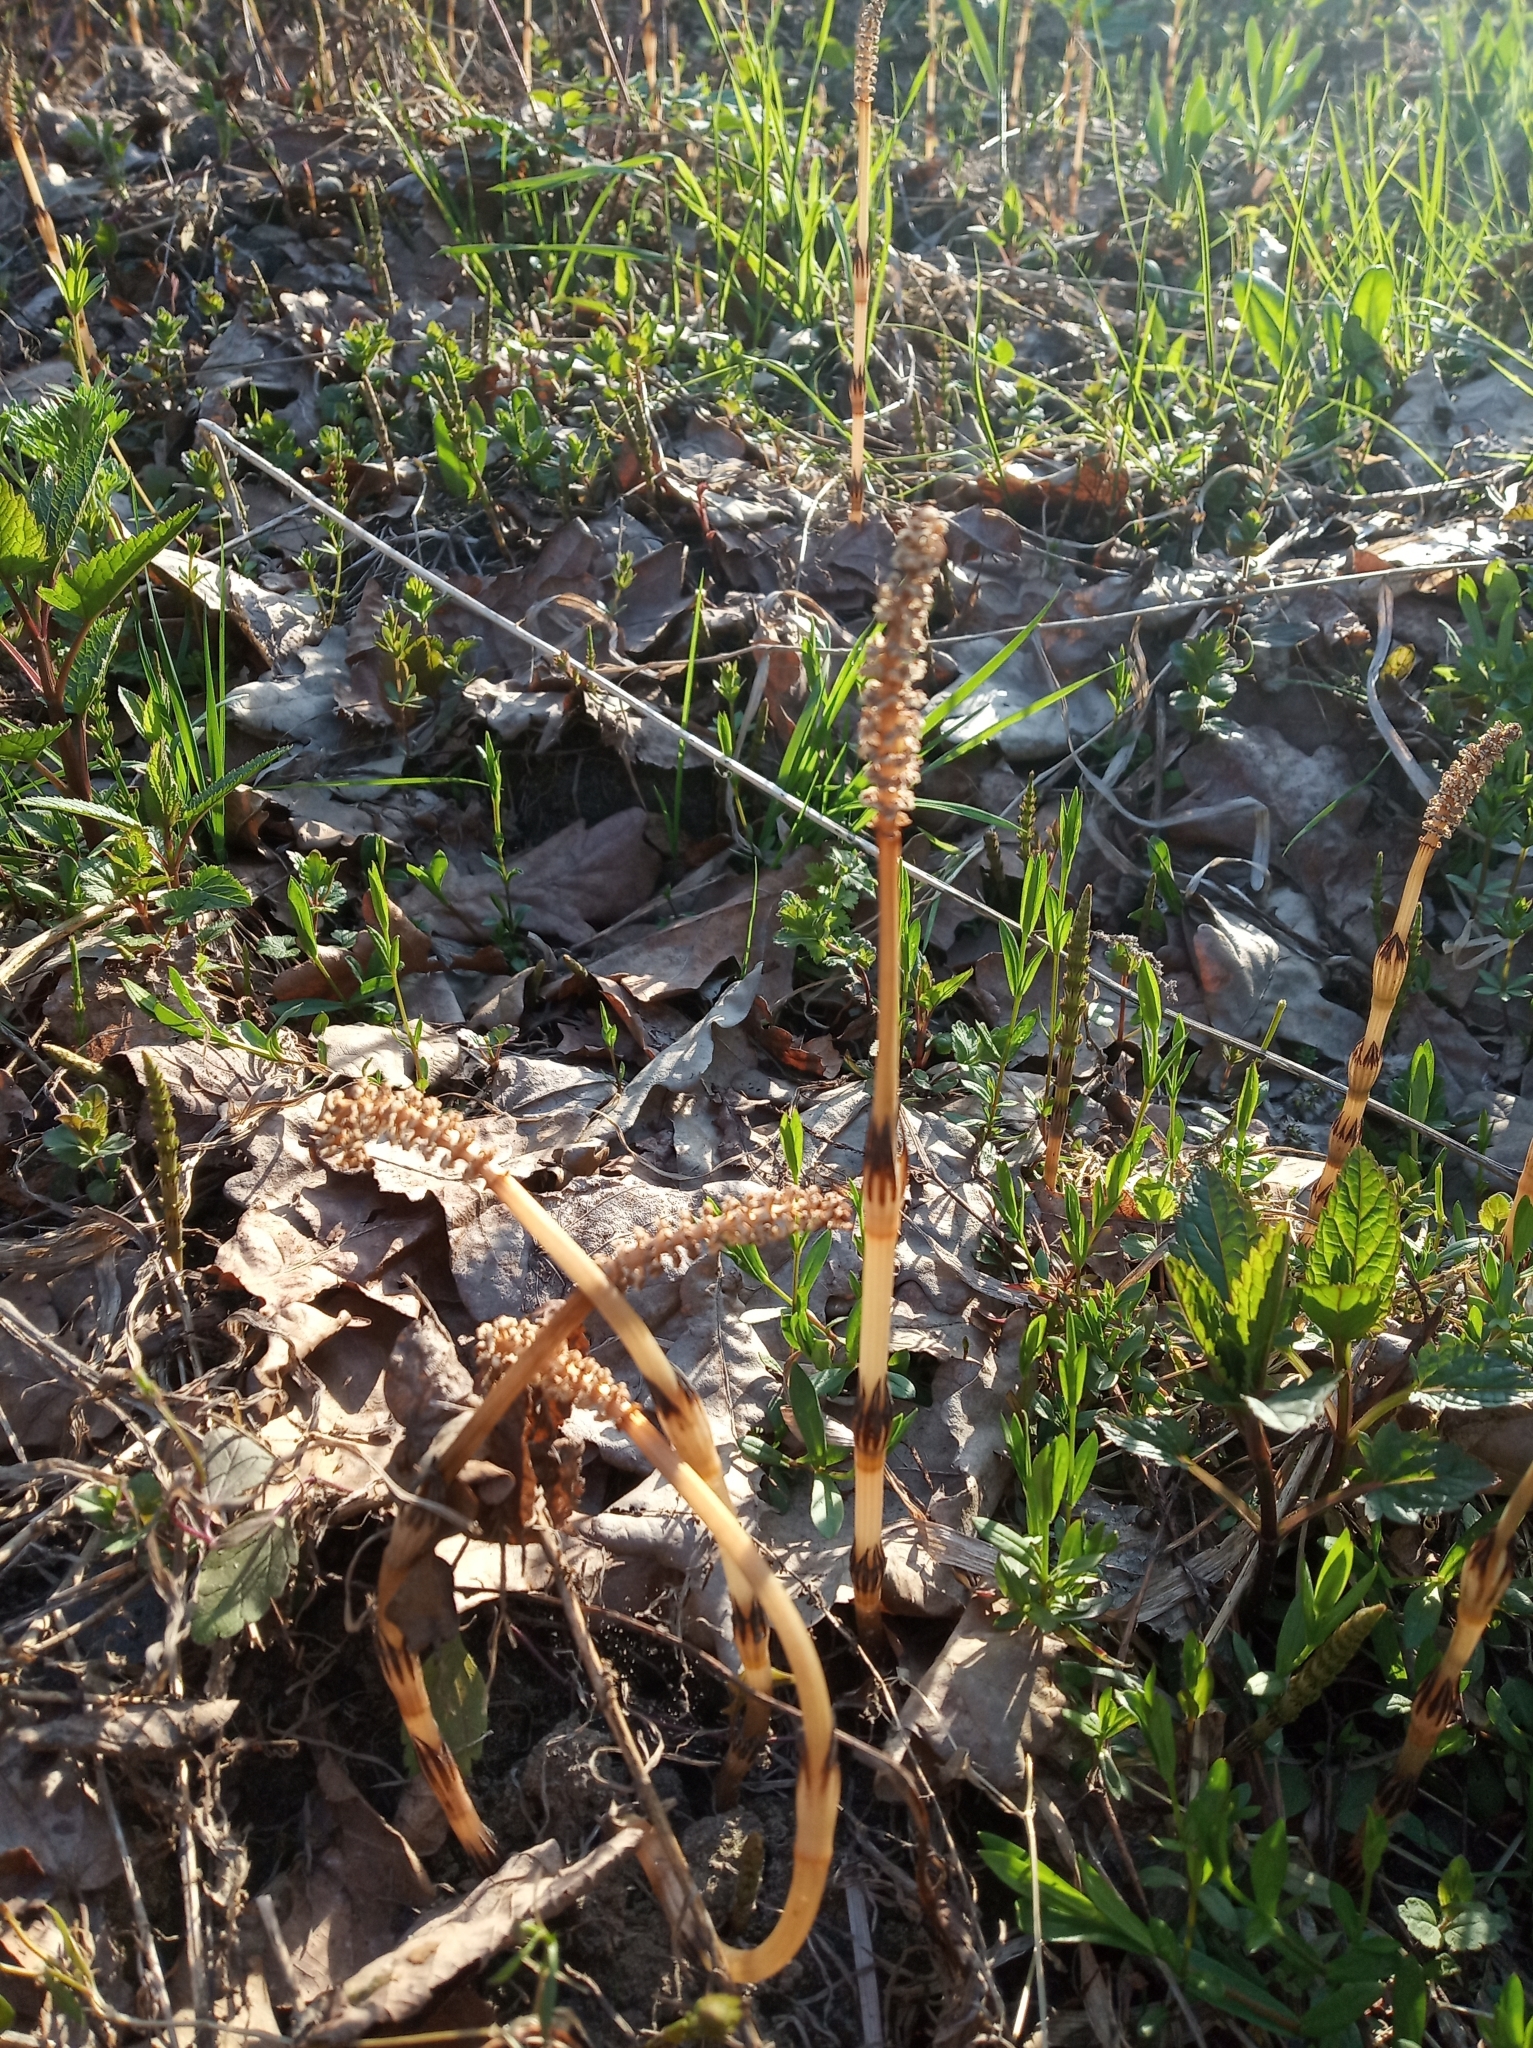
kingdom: Plantae
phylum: Tracheophyta
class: Polypodiopsida
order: Equisetales
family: Equisetaceae
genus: Equisetum
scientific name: Equisetum arvense
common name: Field horsetail
